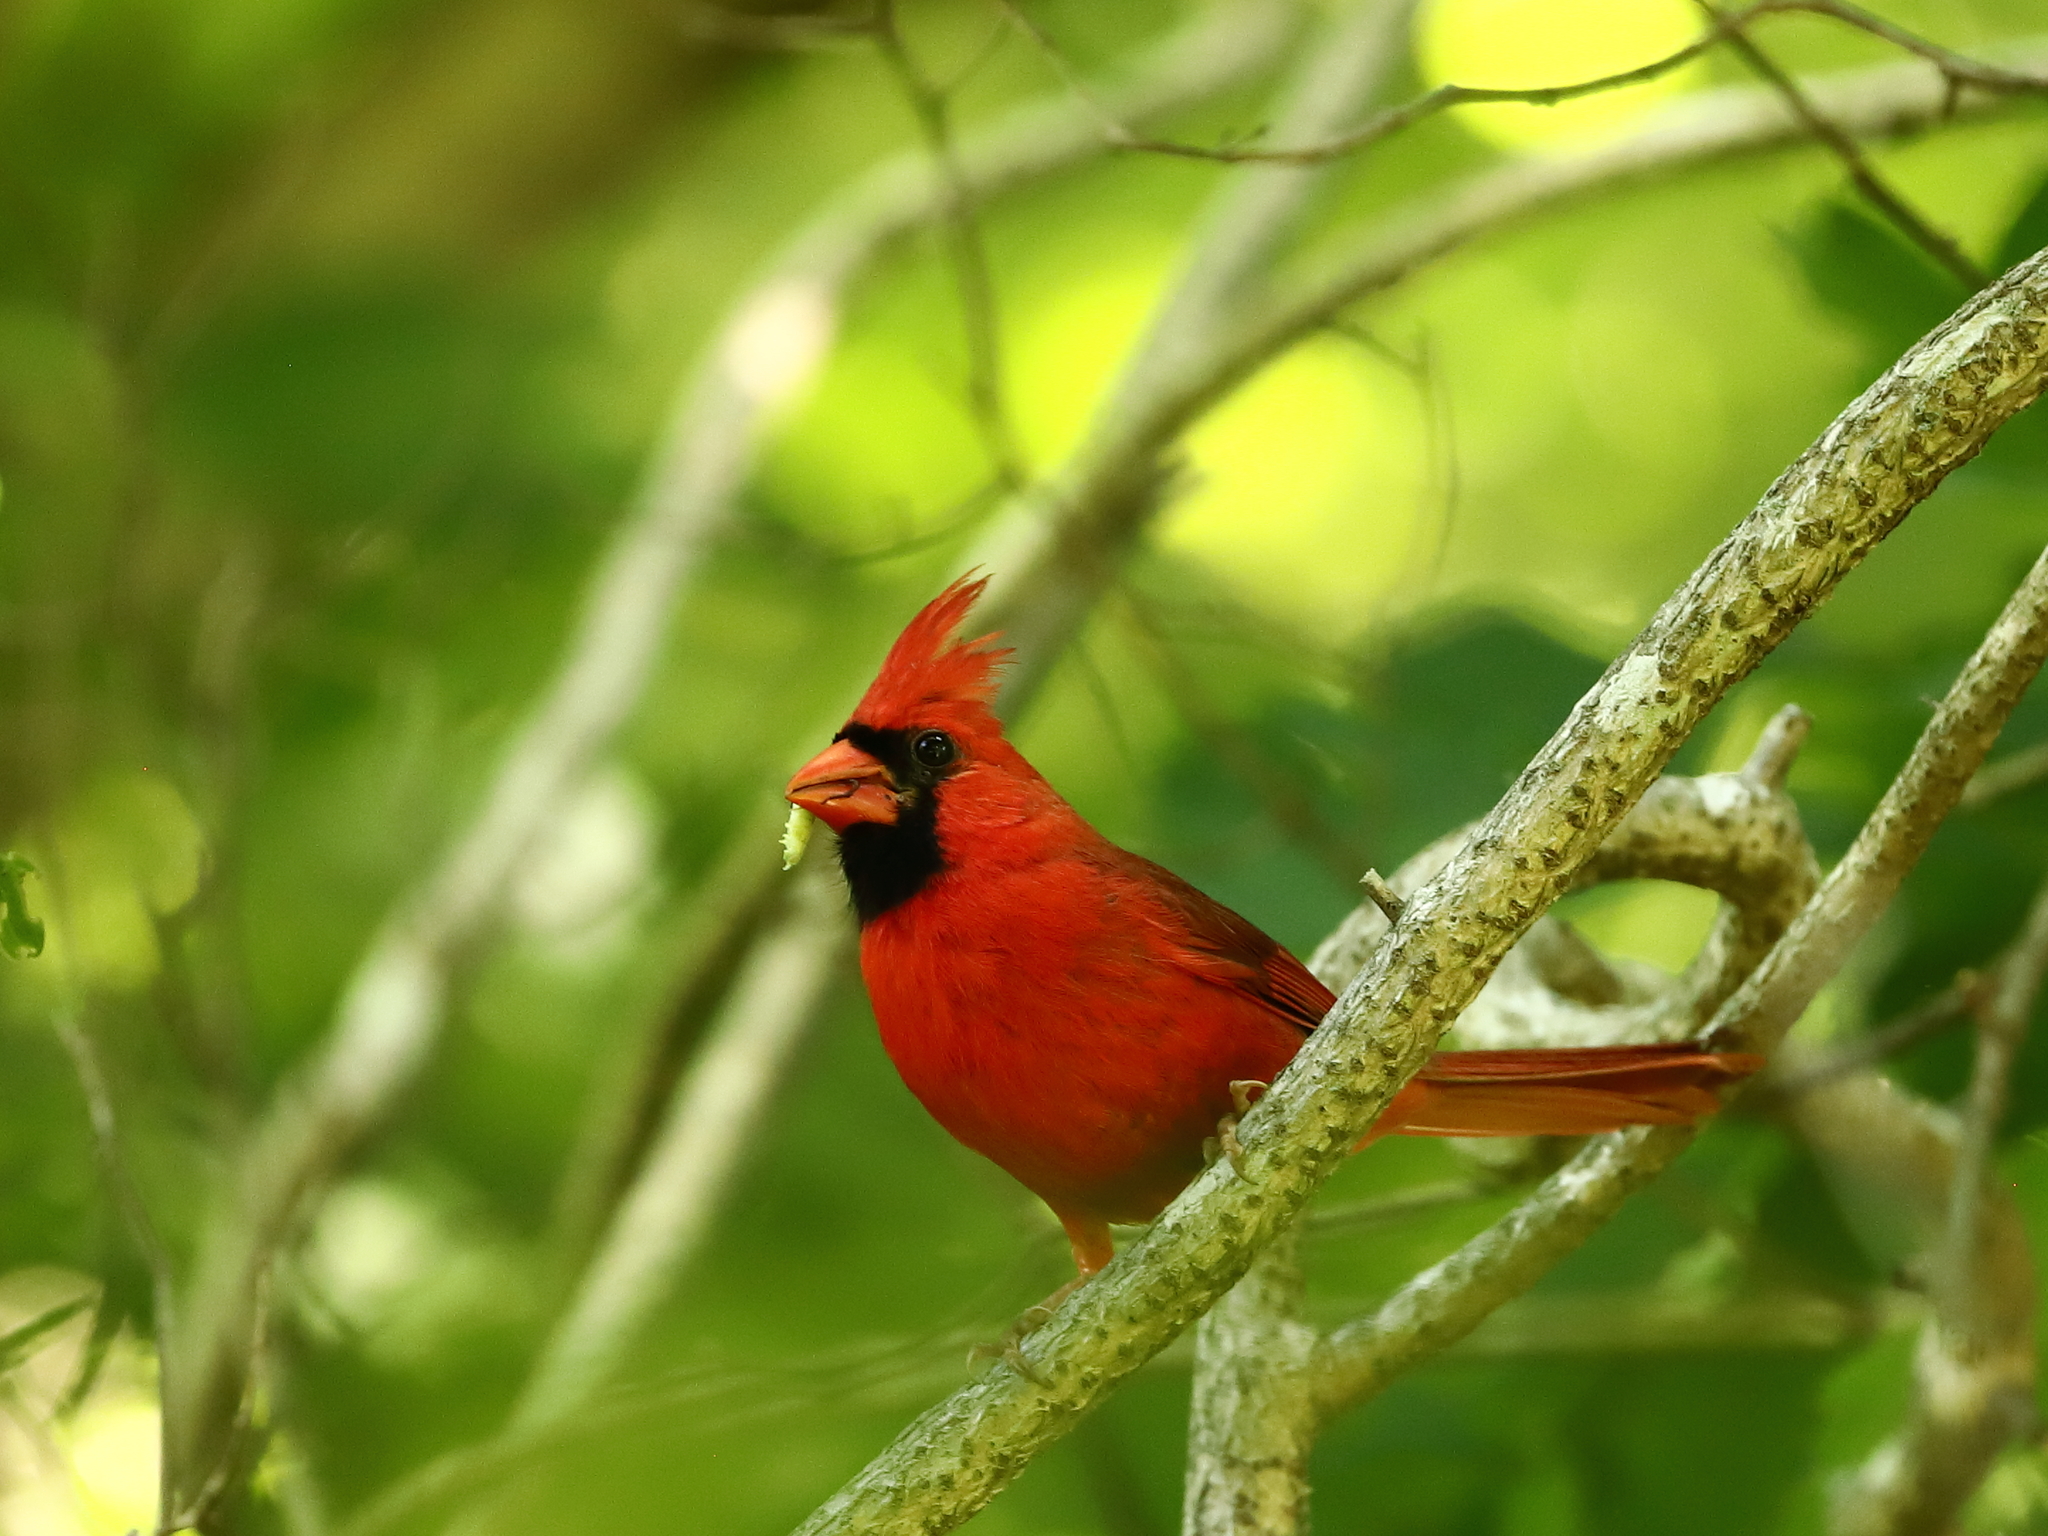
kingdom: Animalia
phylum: Chordata
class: Aves
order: Passeriformes
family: Cardinalidae
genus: Cardinalis
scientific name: Cardinalis cardinalis
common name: Northern cardinal
